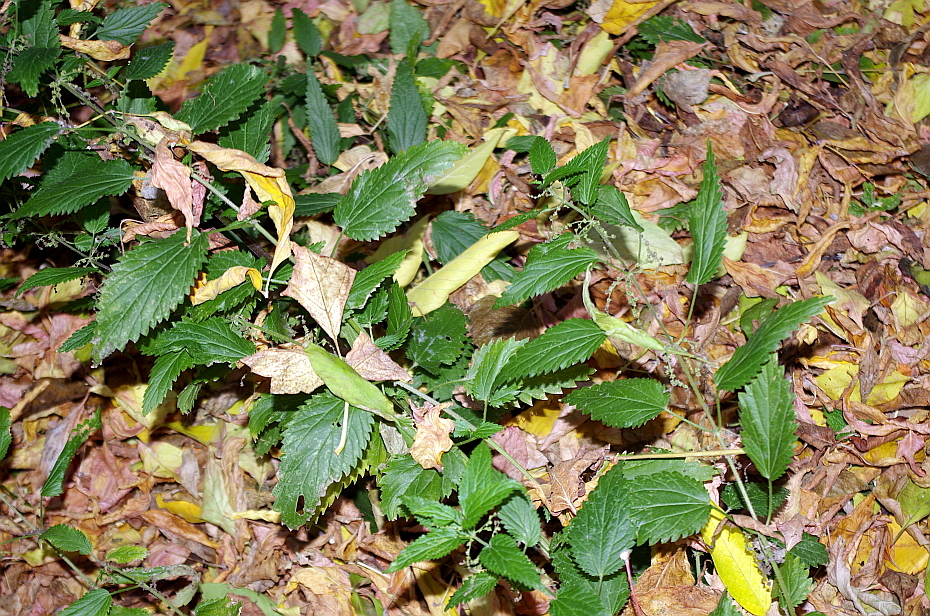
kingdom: Plantae
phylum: Tracheophyta
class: Magnoliopsida
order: Rosales
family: Urticaceae
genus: Urtica
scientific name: Urtica dioica
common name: Common nettle
